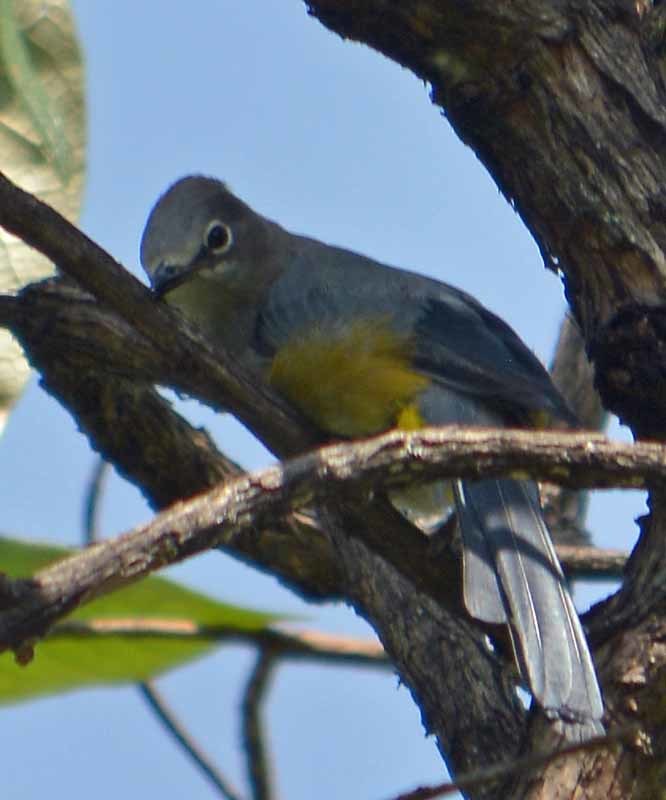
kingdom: Animalia
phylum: Chordata
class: Aves
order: Passeriformes
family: Ptilogonatidae
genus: Ptilogonys
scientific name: Ptilogonys cinereus
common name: Gray silky-flycatcher
